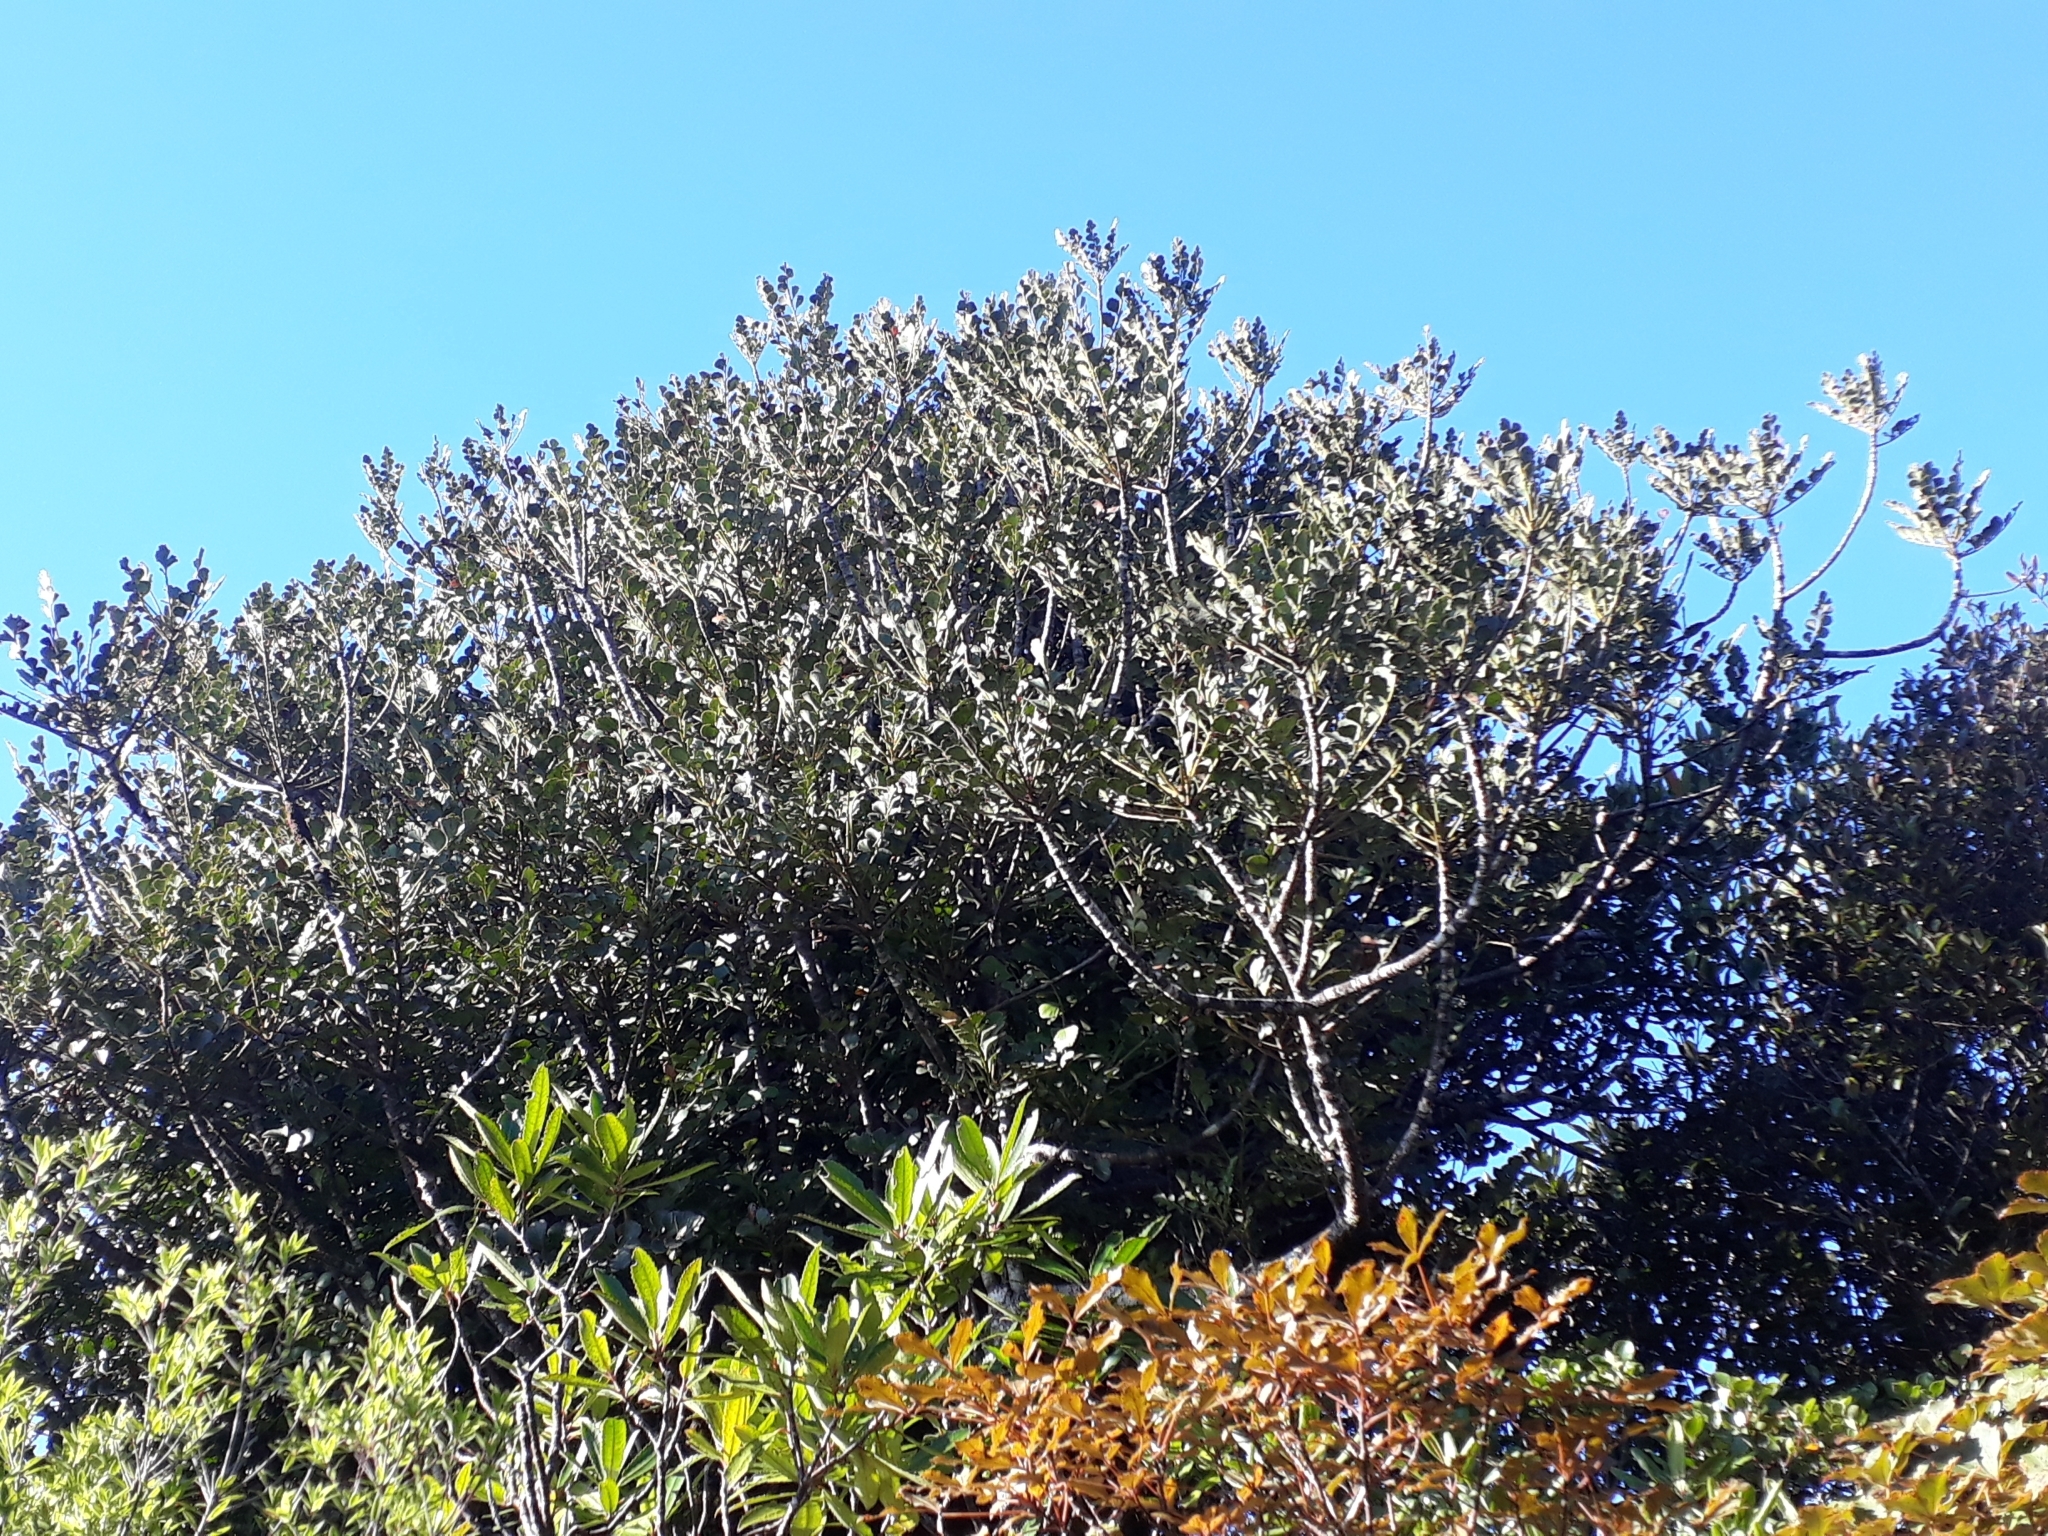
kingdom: Plantae
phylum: Tracheophyta
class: Pinopsida
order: Pinales
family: Phyllocladaceae
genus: Phyllocladus
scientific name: Phyllocladus toatoa
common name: Celery-top pine
